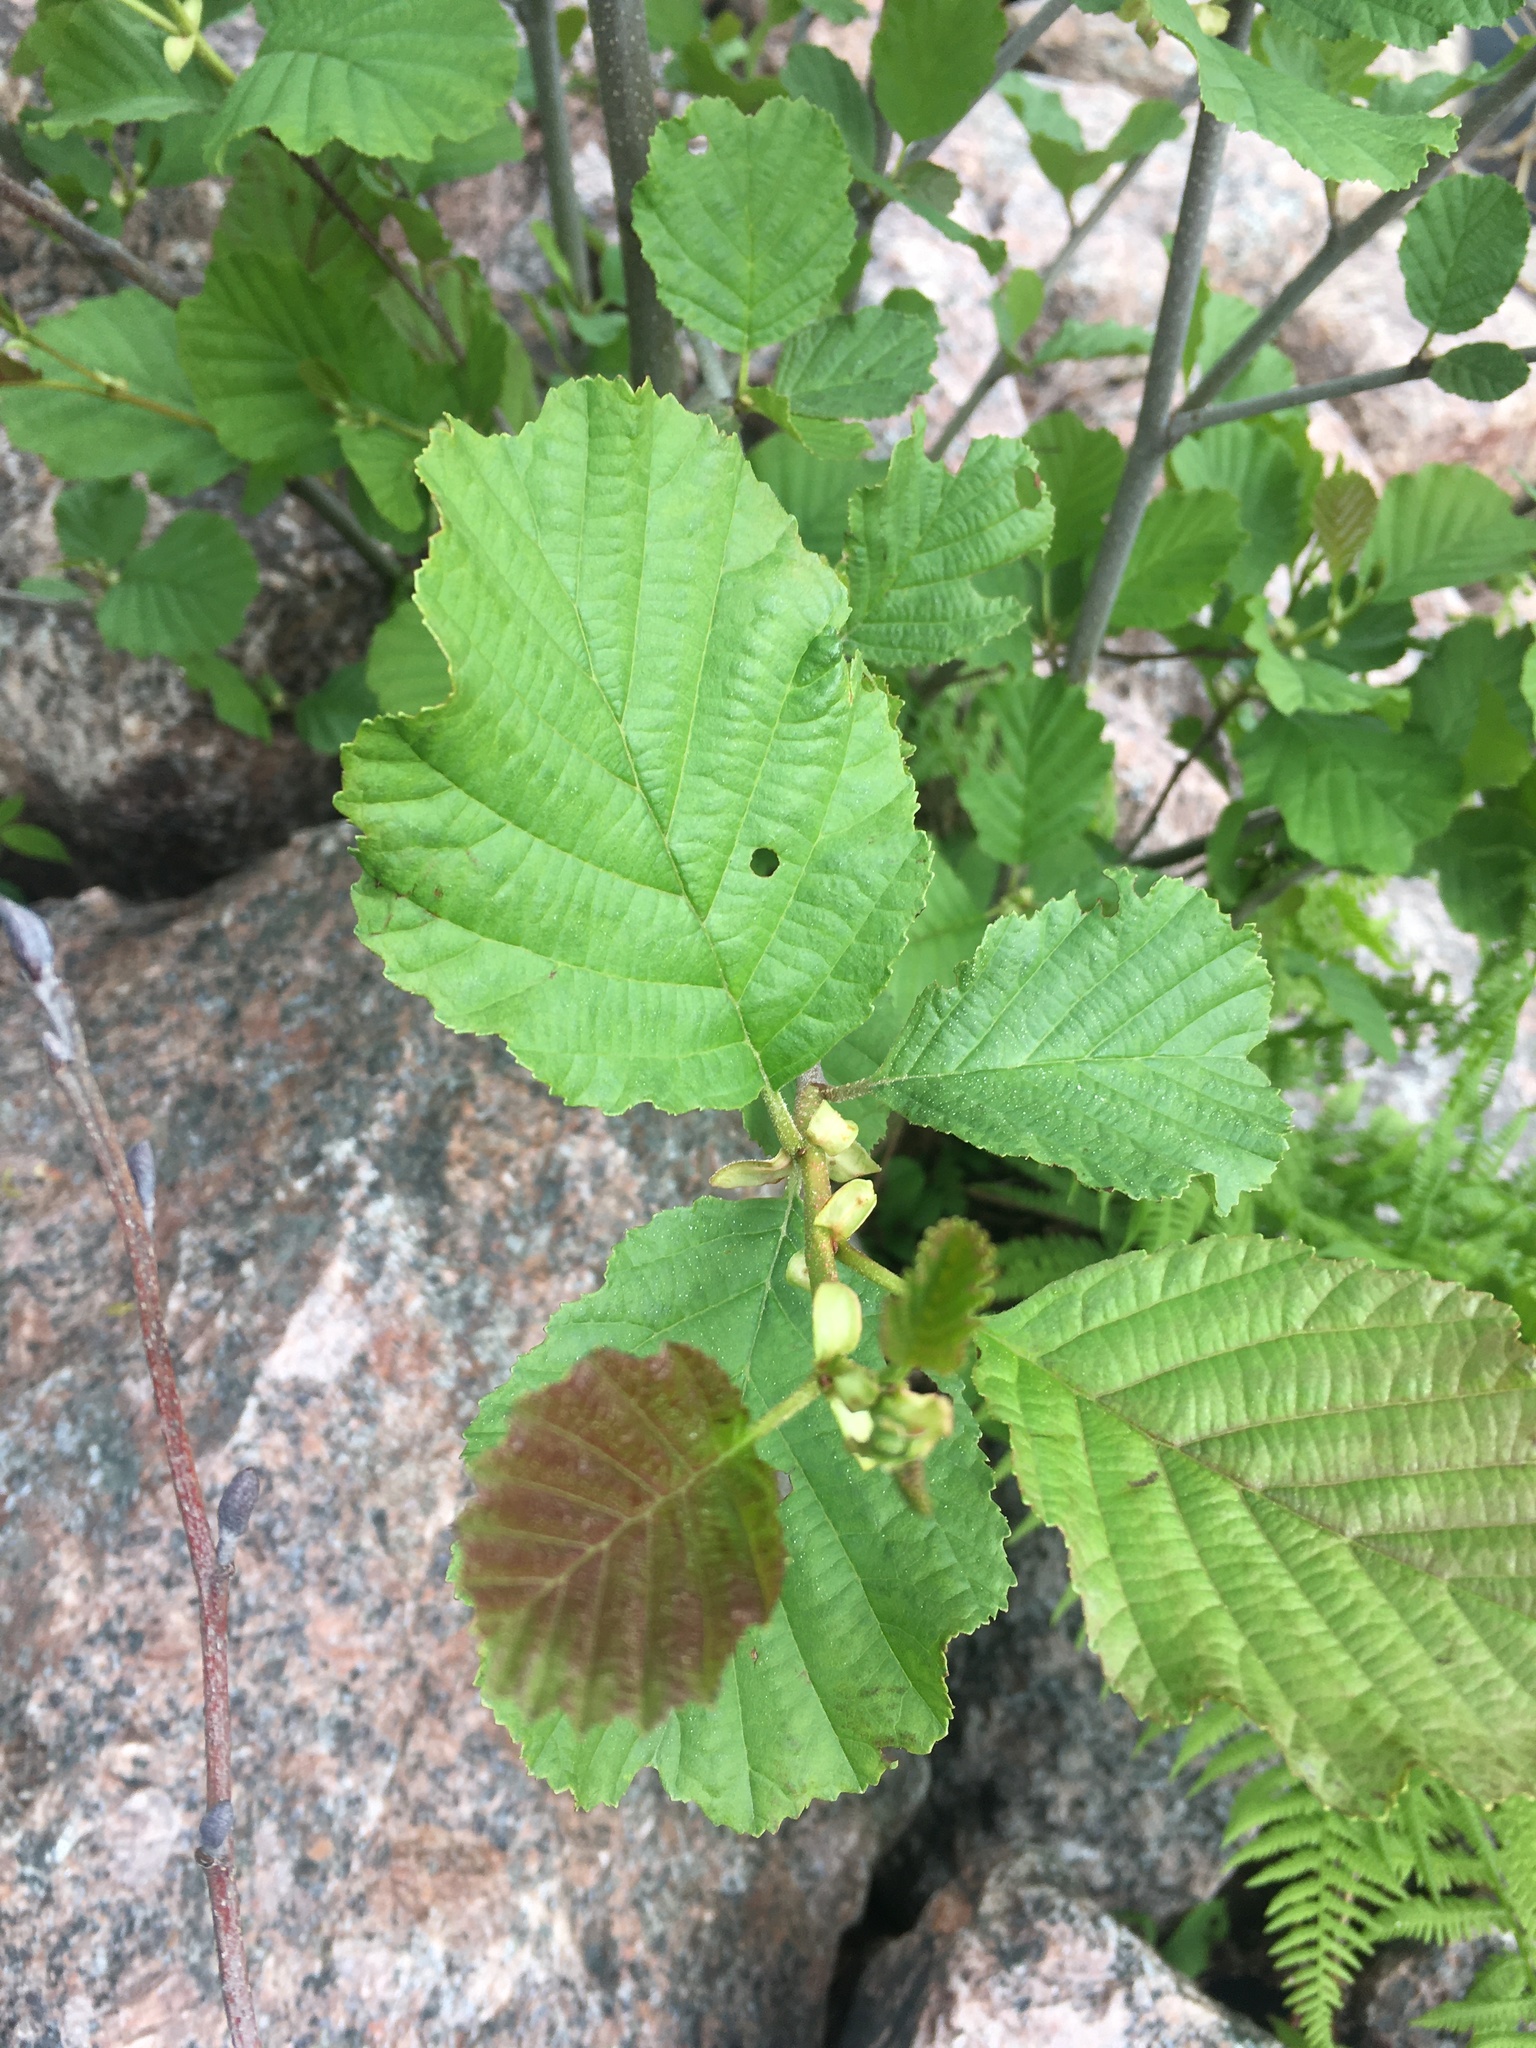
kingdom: Plantae
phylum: Tracheophyta
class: Magnoliopsida
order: Fagales
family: Betulaceae
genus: Alnus
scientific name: Alnus glutinosa
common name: Black alder
